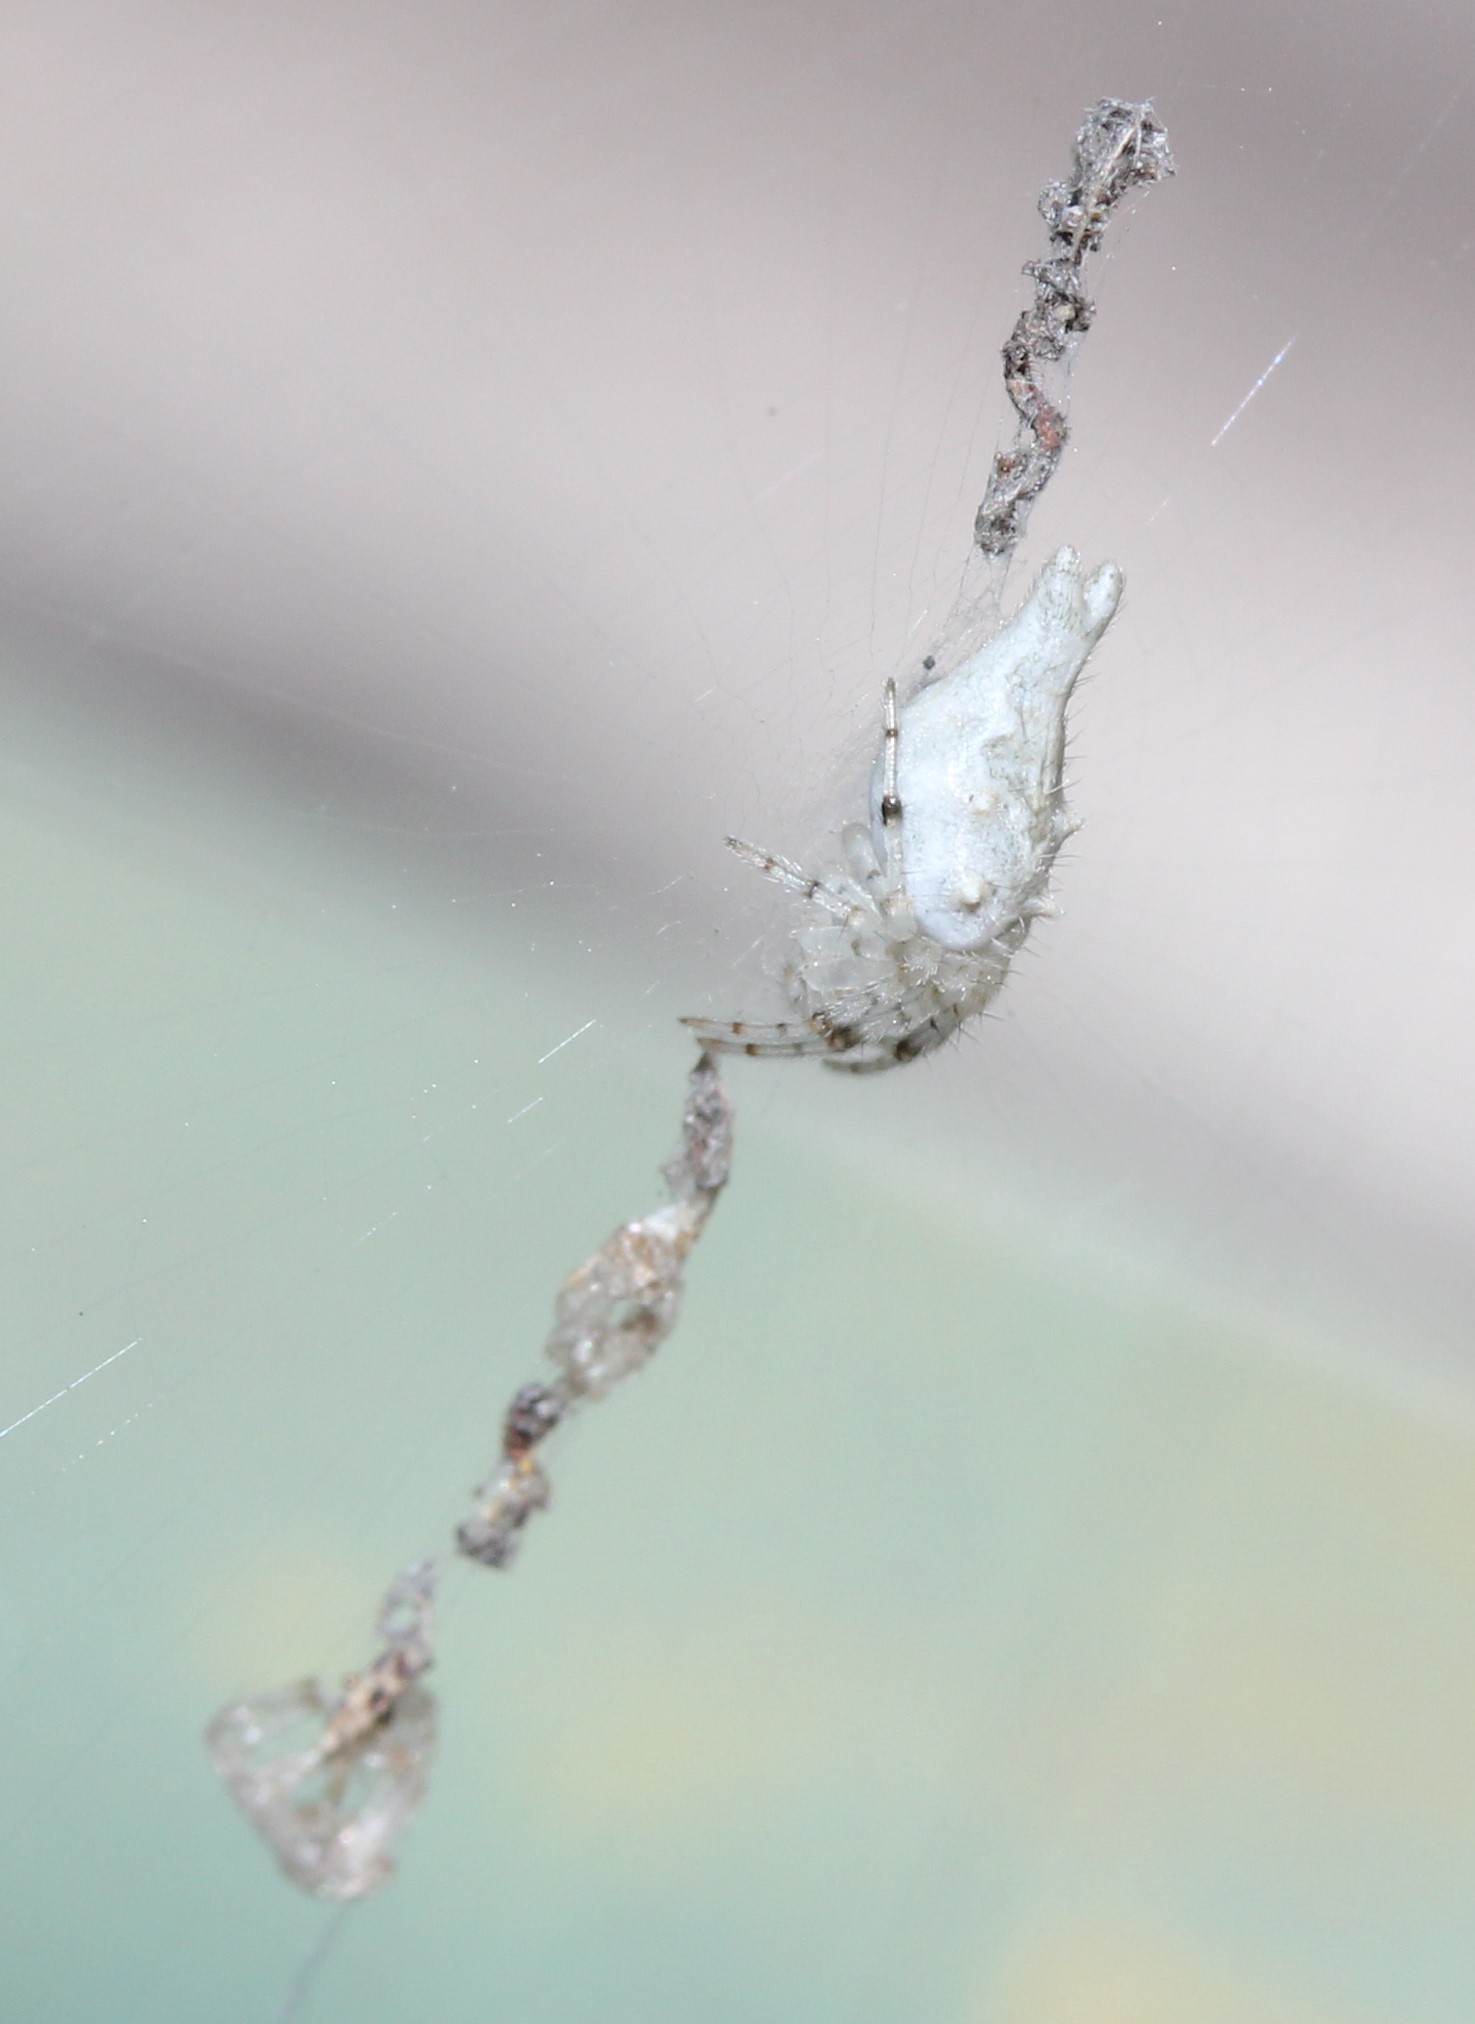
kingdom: Animalia
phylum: Arthropoda
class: Arachnida
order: Araneae
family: Araneidae
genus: Allocyclosa
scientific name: Allocyclosa bifurca
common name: Orb weavers
